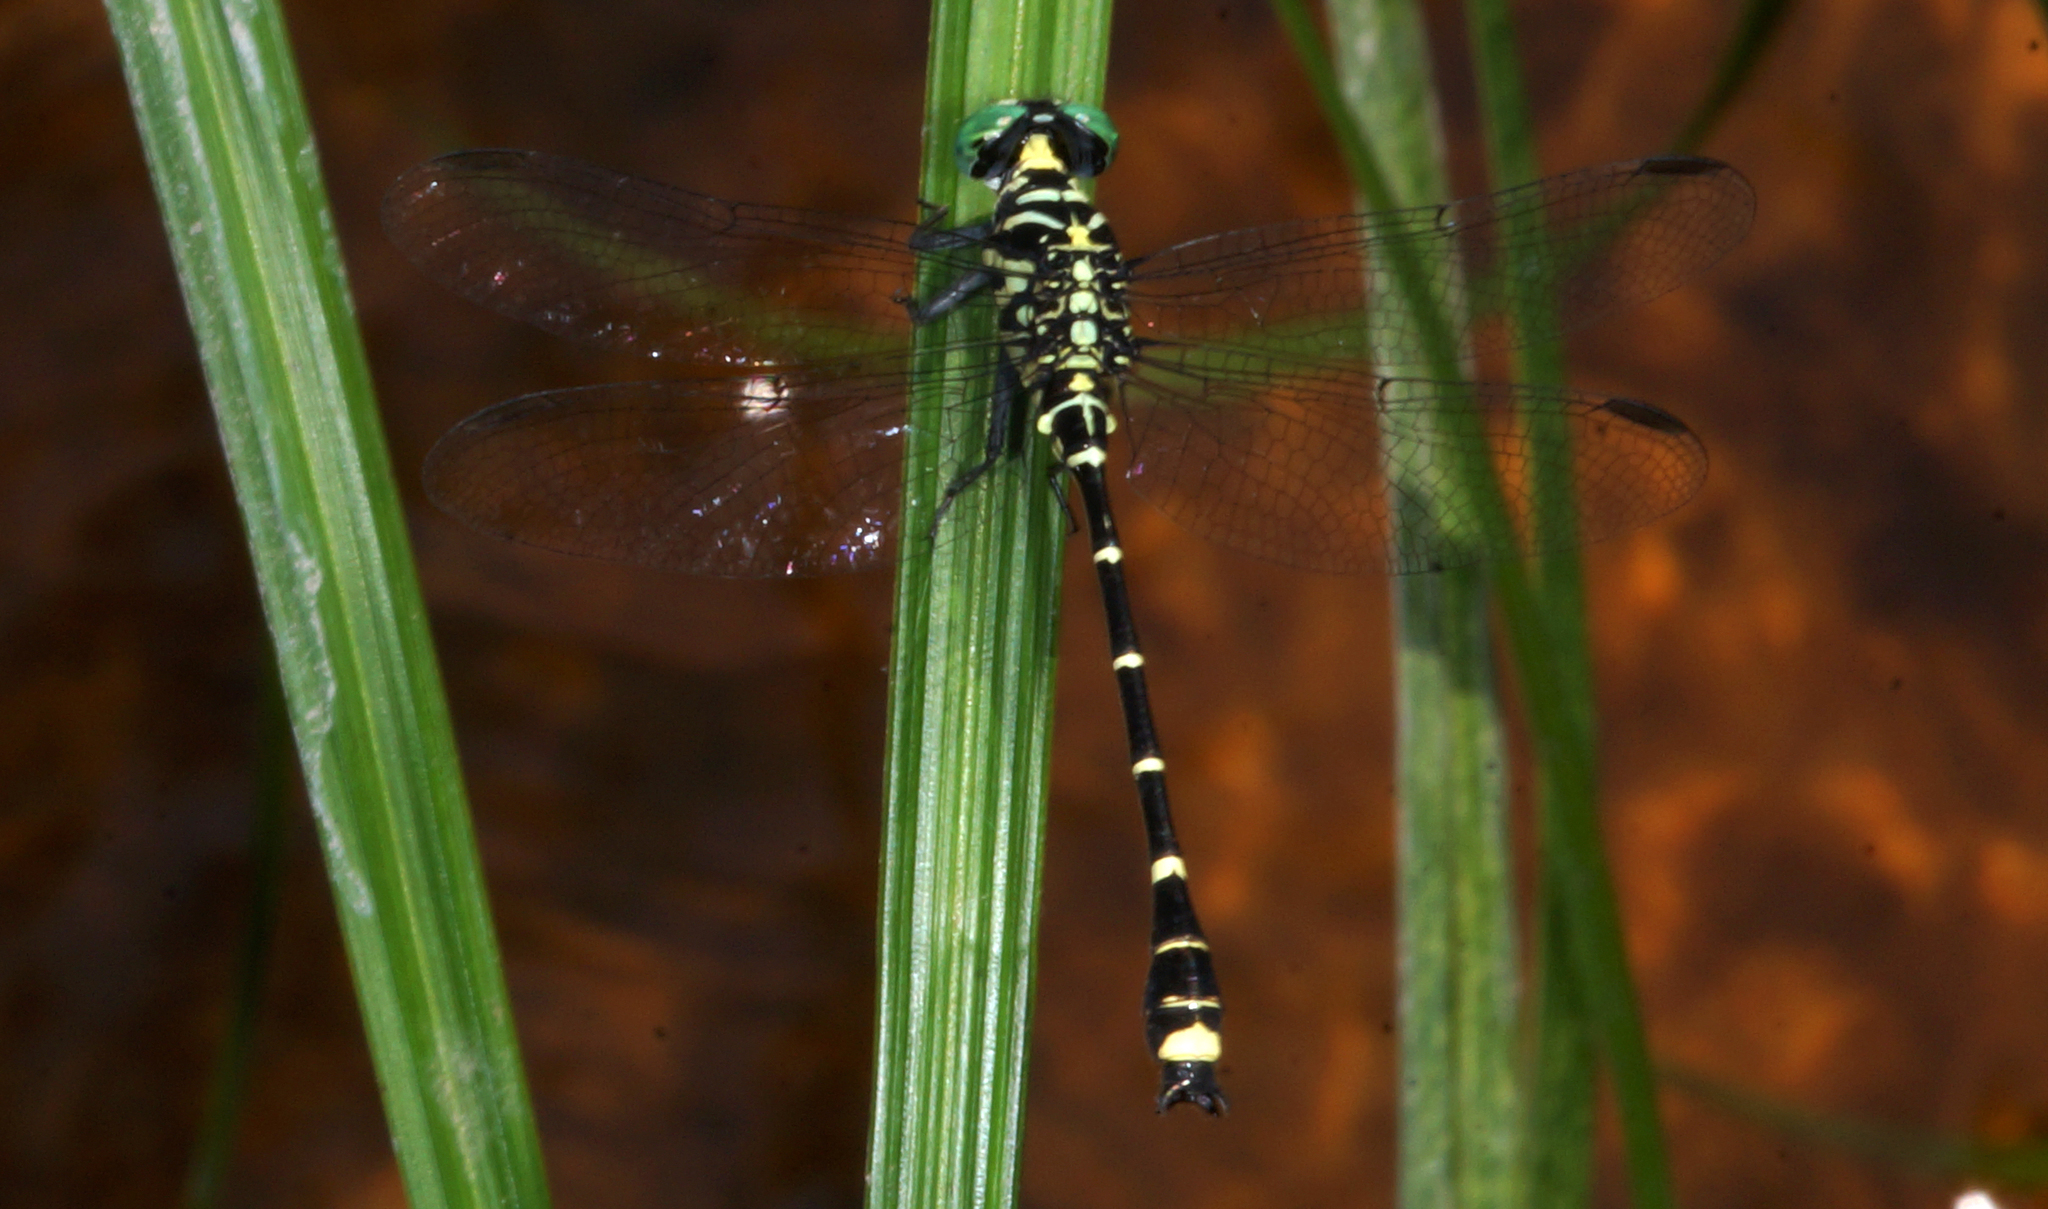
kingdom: Animalia
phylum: Arthropoda
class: Insecta
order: Odonata
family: Gomphidae
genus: Burmagomphus
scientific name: Burmagomphus williamsoni
